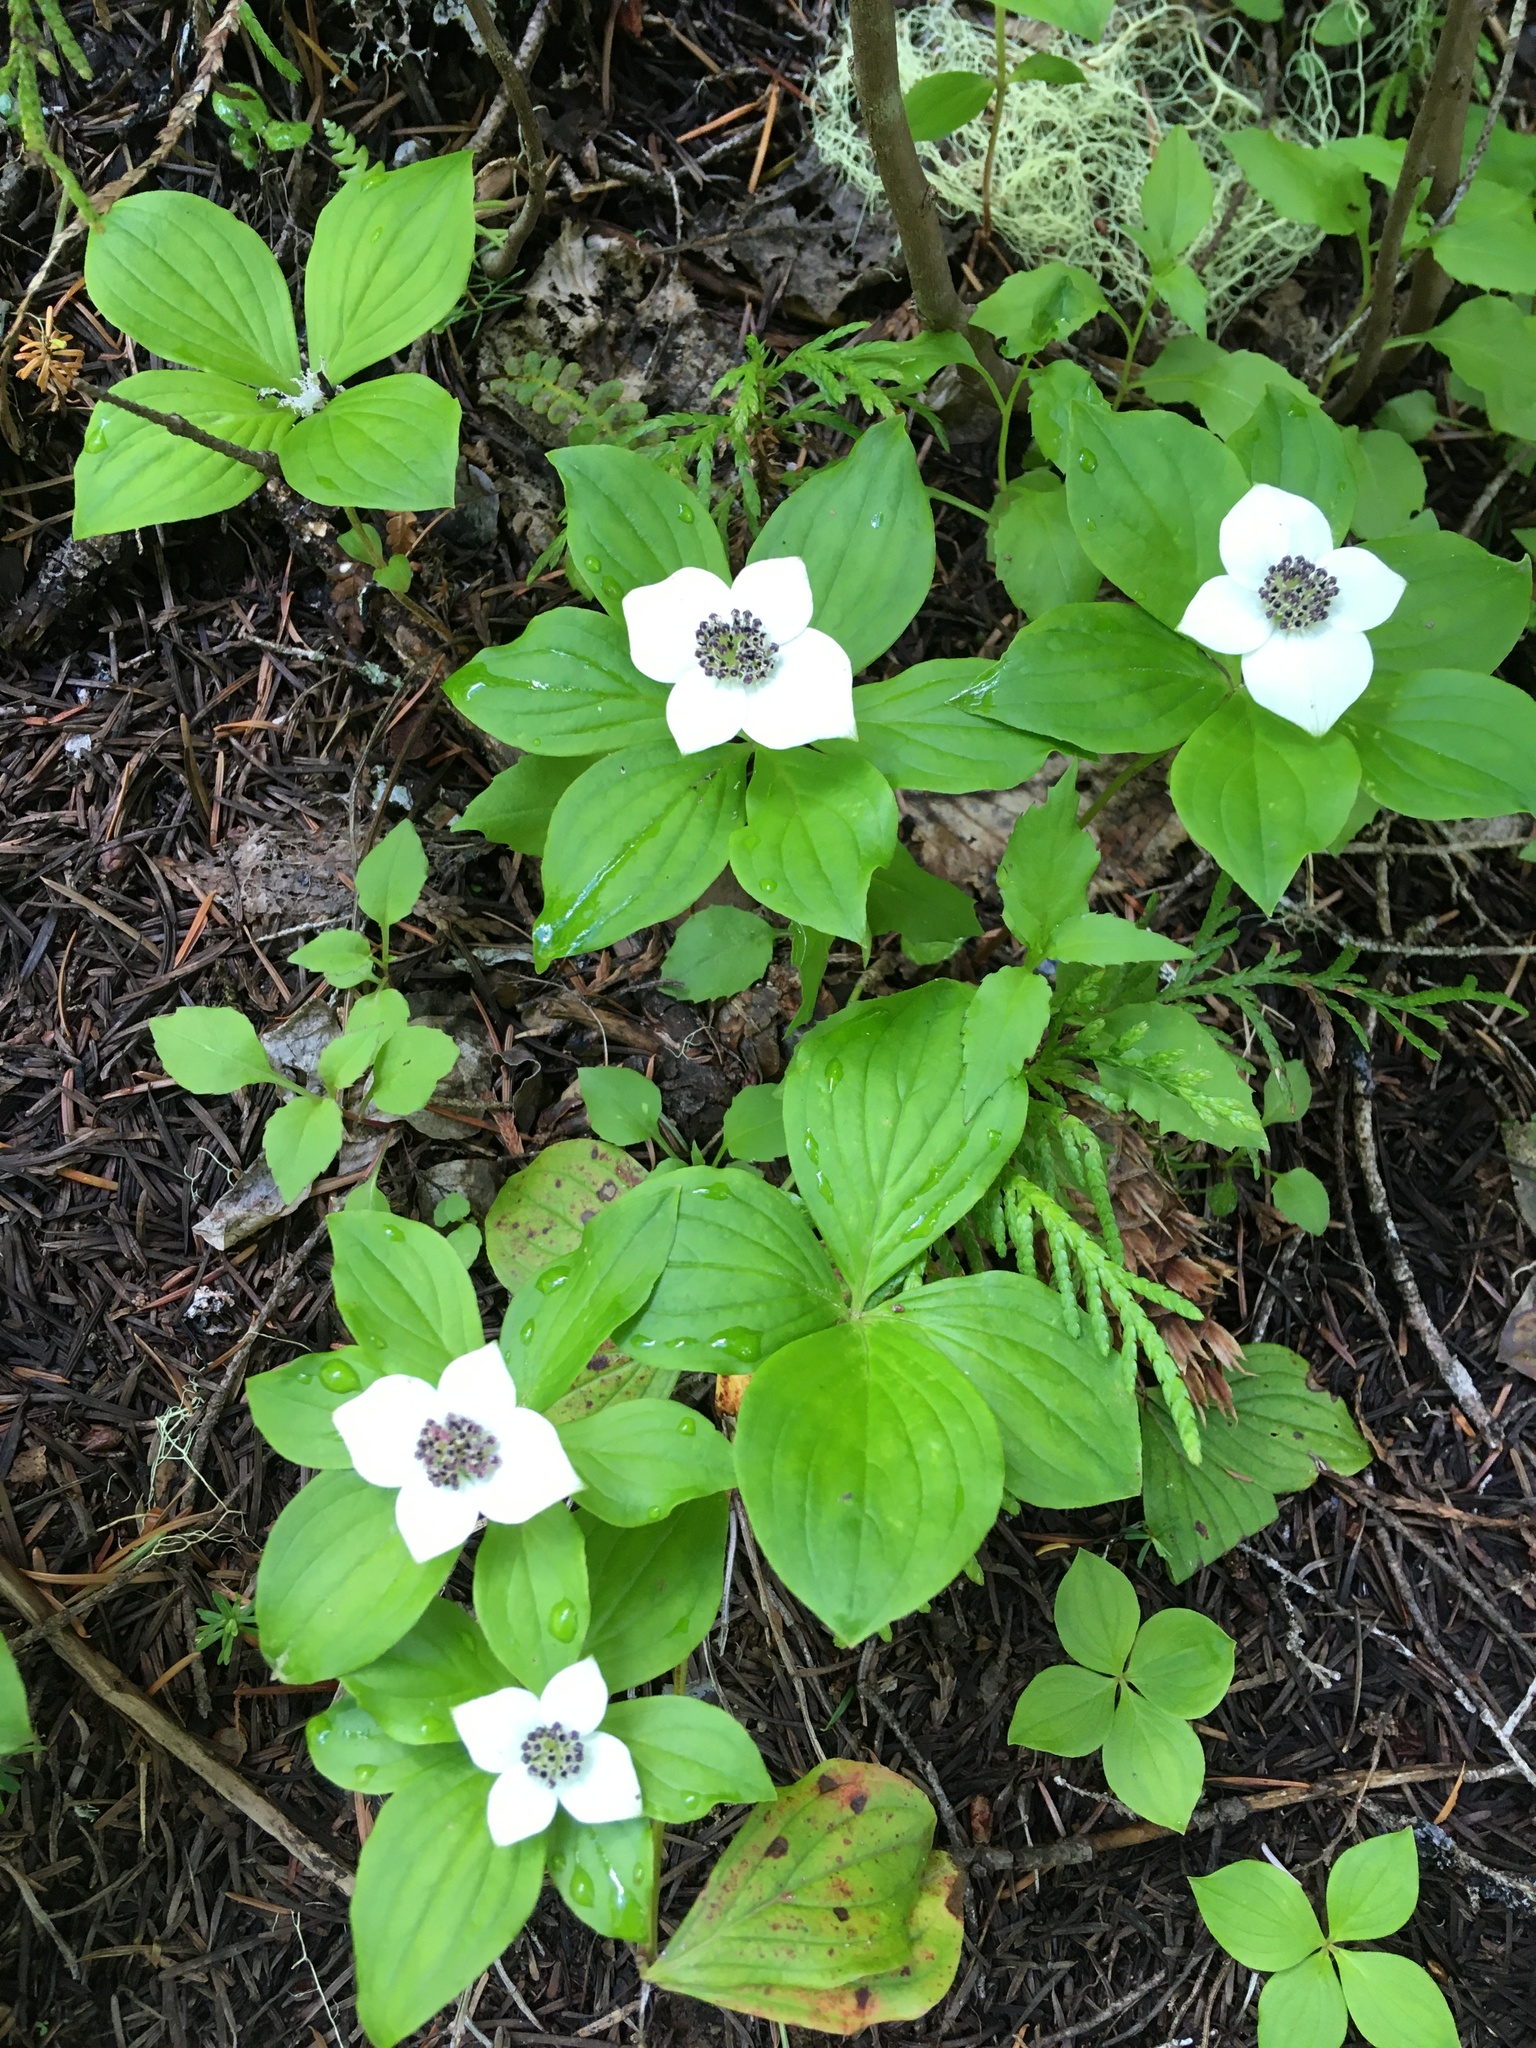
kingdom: Plantae
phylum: Tracheophyta
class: Magnoliopsida
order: Cornales
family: Cornaceae
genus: Cornus
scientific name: Cornus unalaschkensis
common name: Alaska bunchberry
